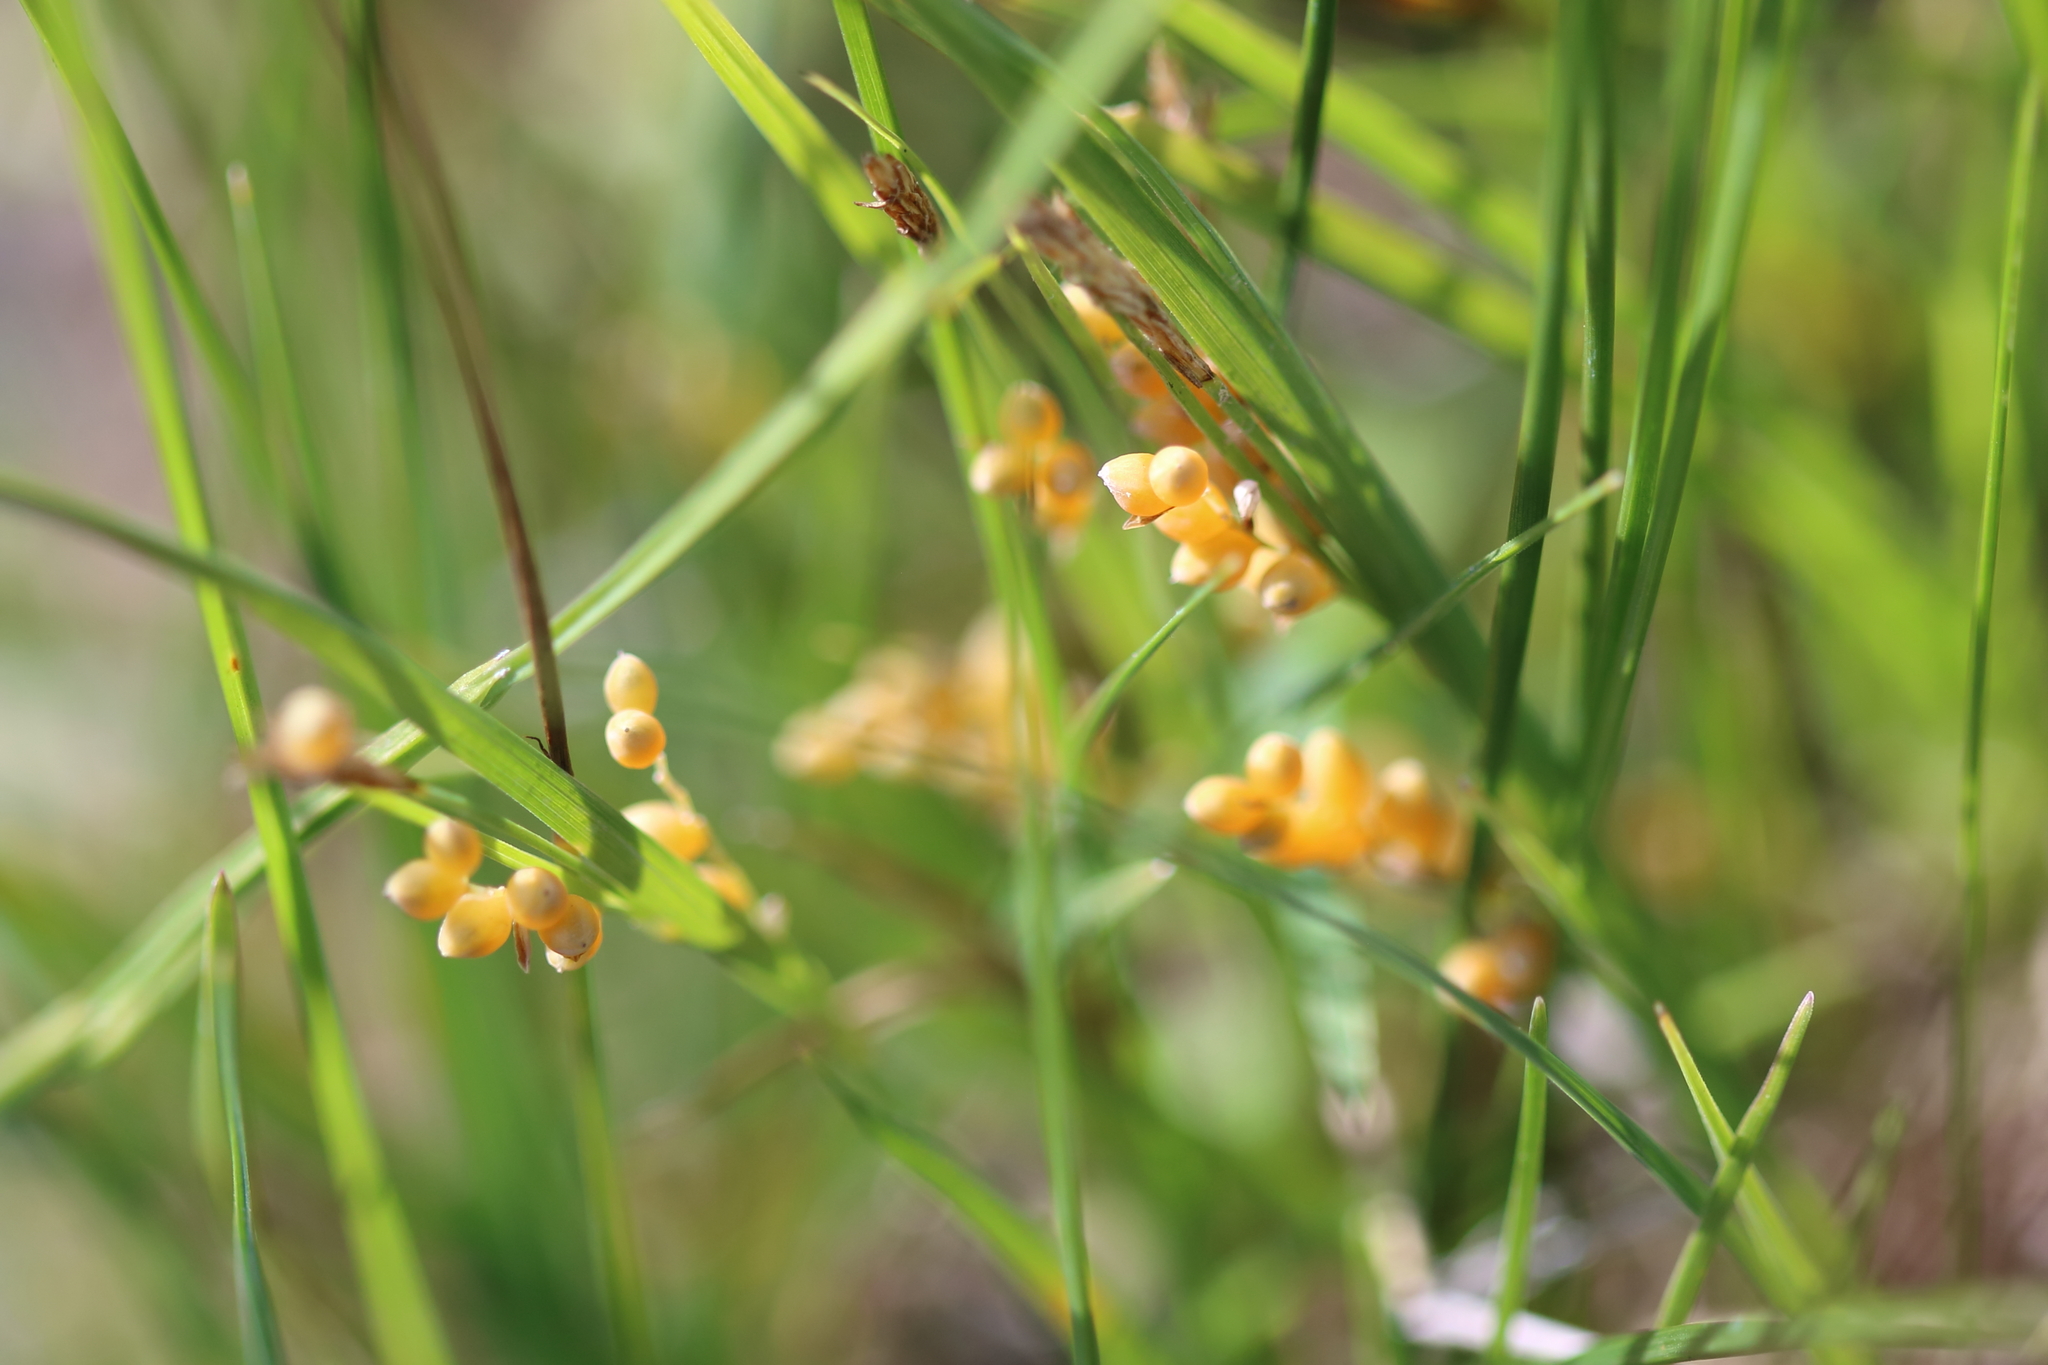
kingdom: Plantae
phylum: Tracheophyta
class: Liliopsida
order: Poales
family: Cyperaceae
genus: Carex
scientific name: Carex aurea
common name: Golden sedge
